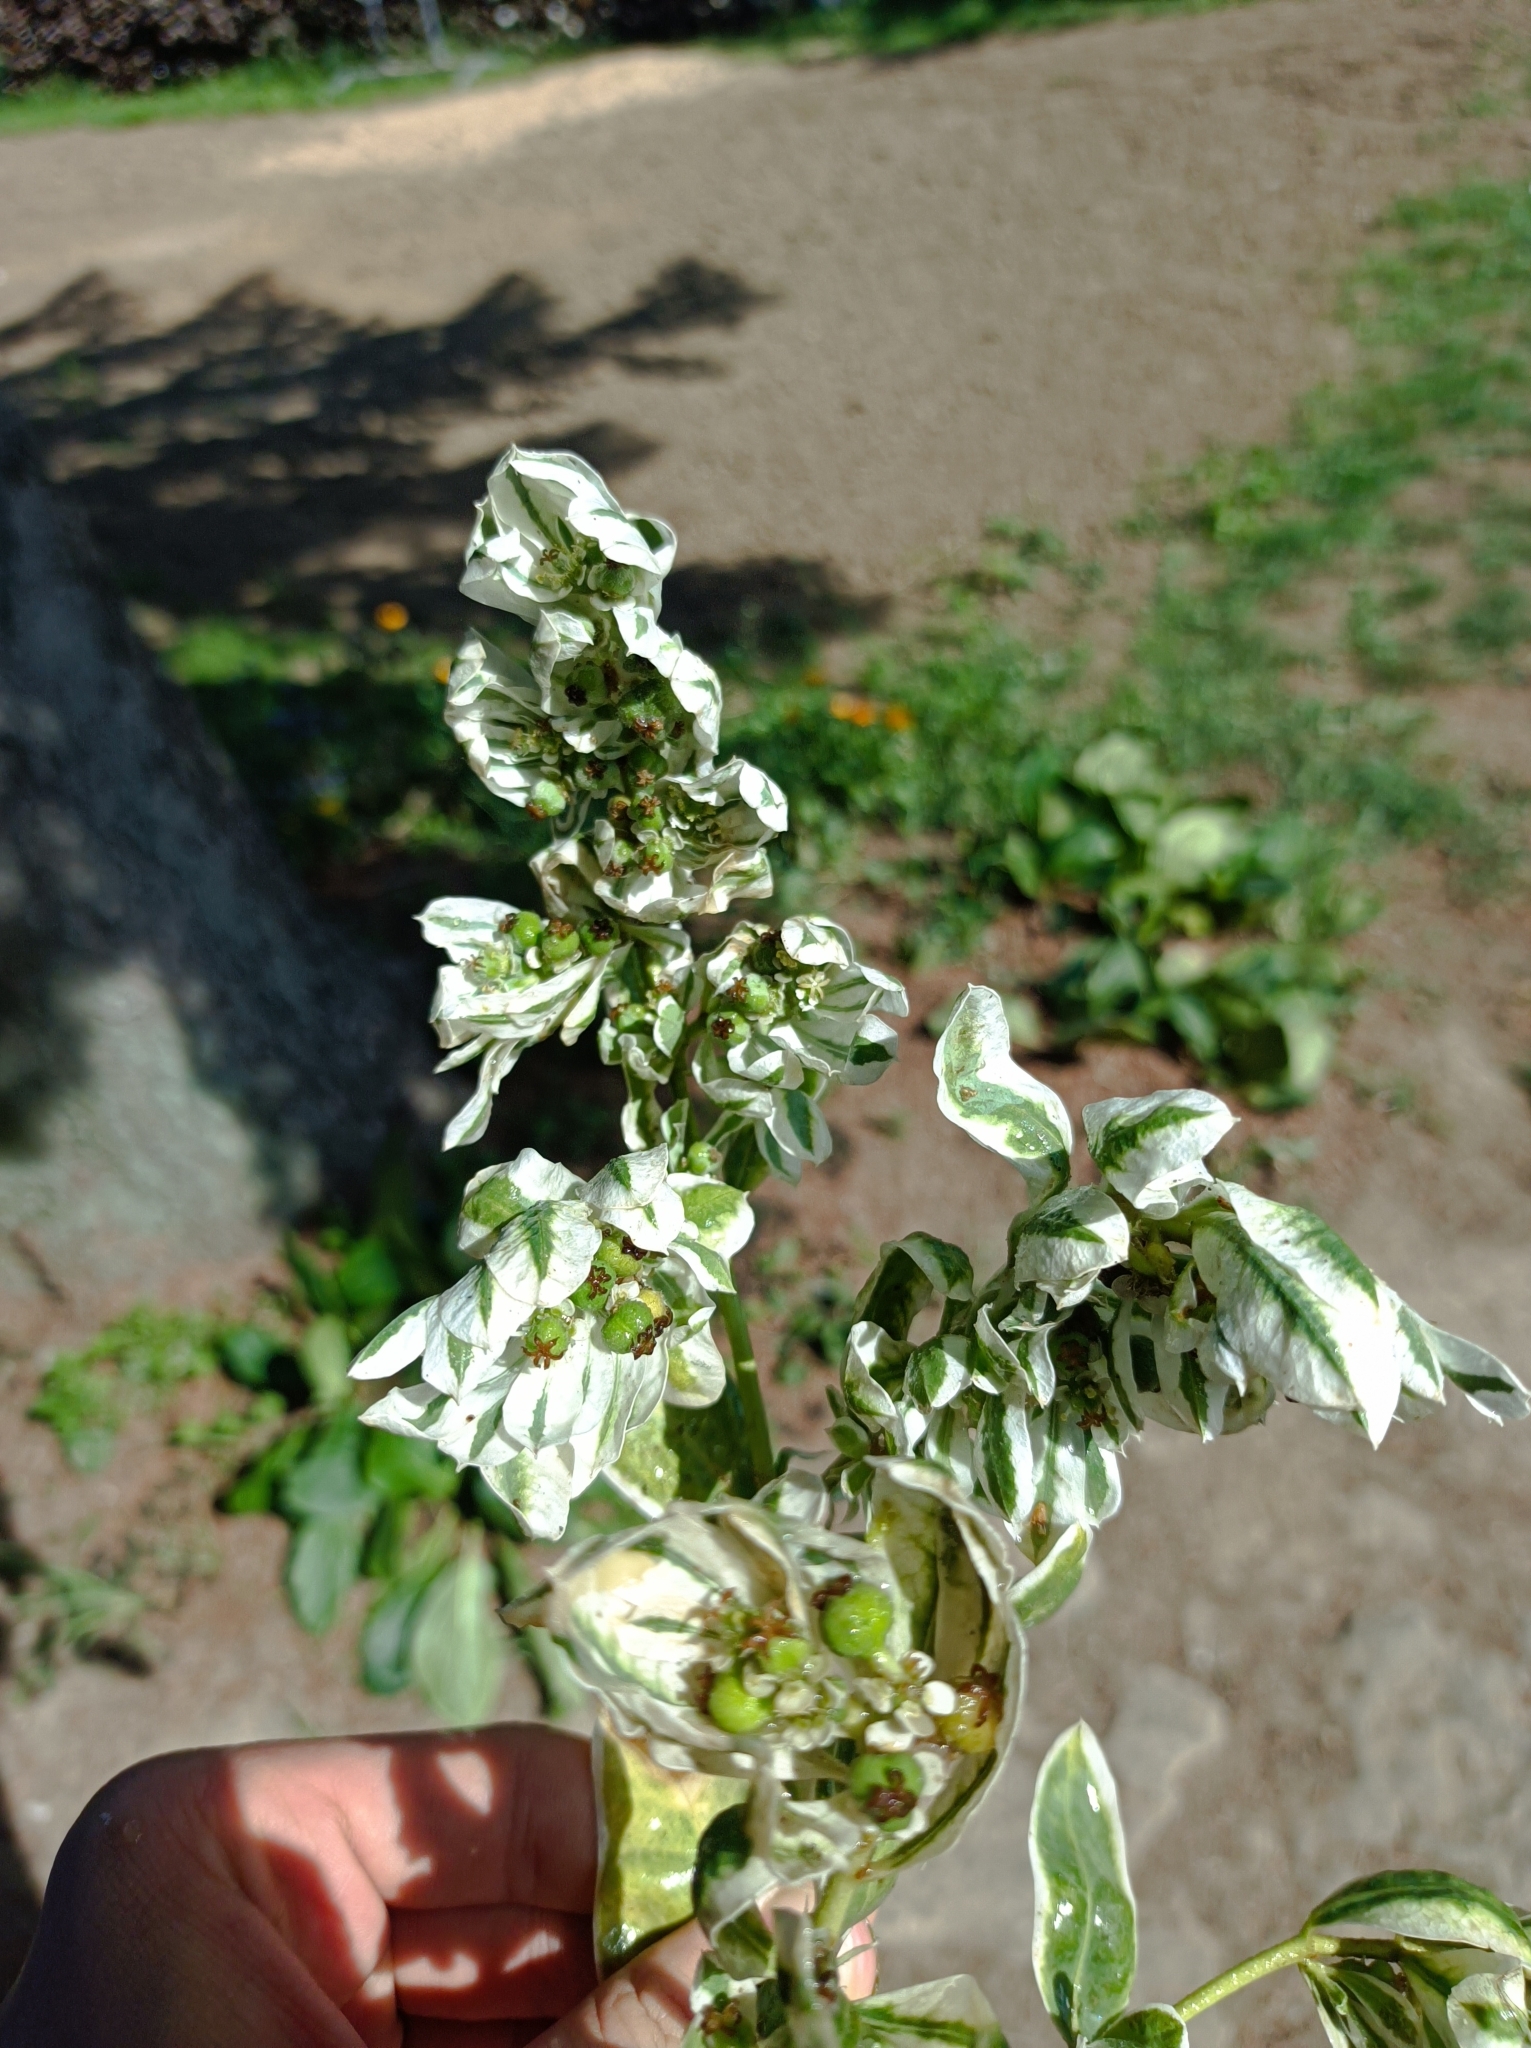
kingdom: Plantae
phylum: Tracheophyta
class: Magnoliopsida
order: Malpighiales
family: Euphorbiaceae
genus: Euphorbia
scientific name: Euphorbia marginata
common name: Ghostweed
